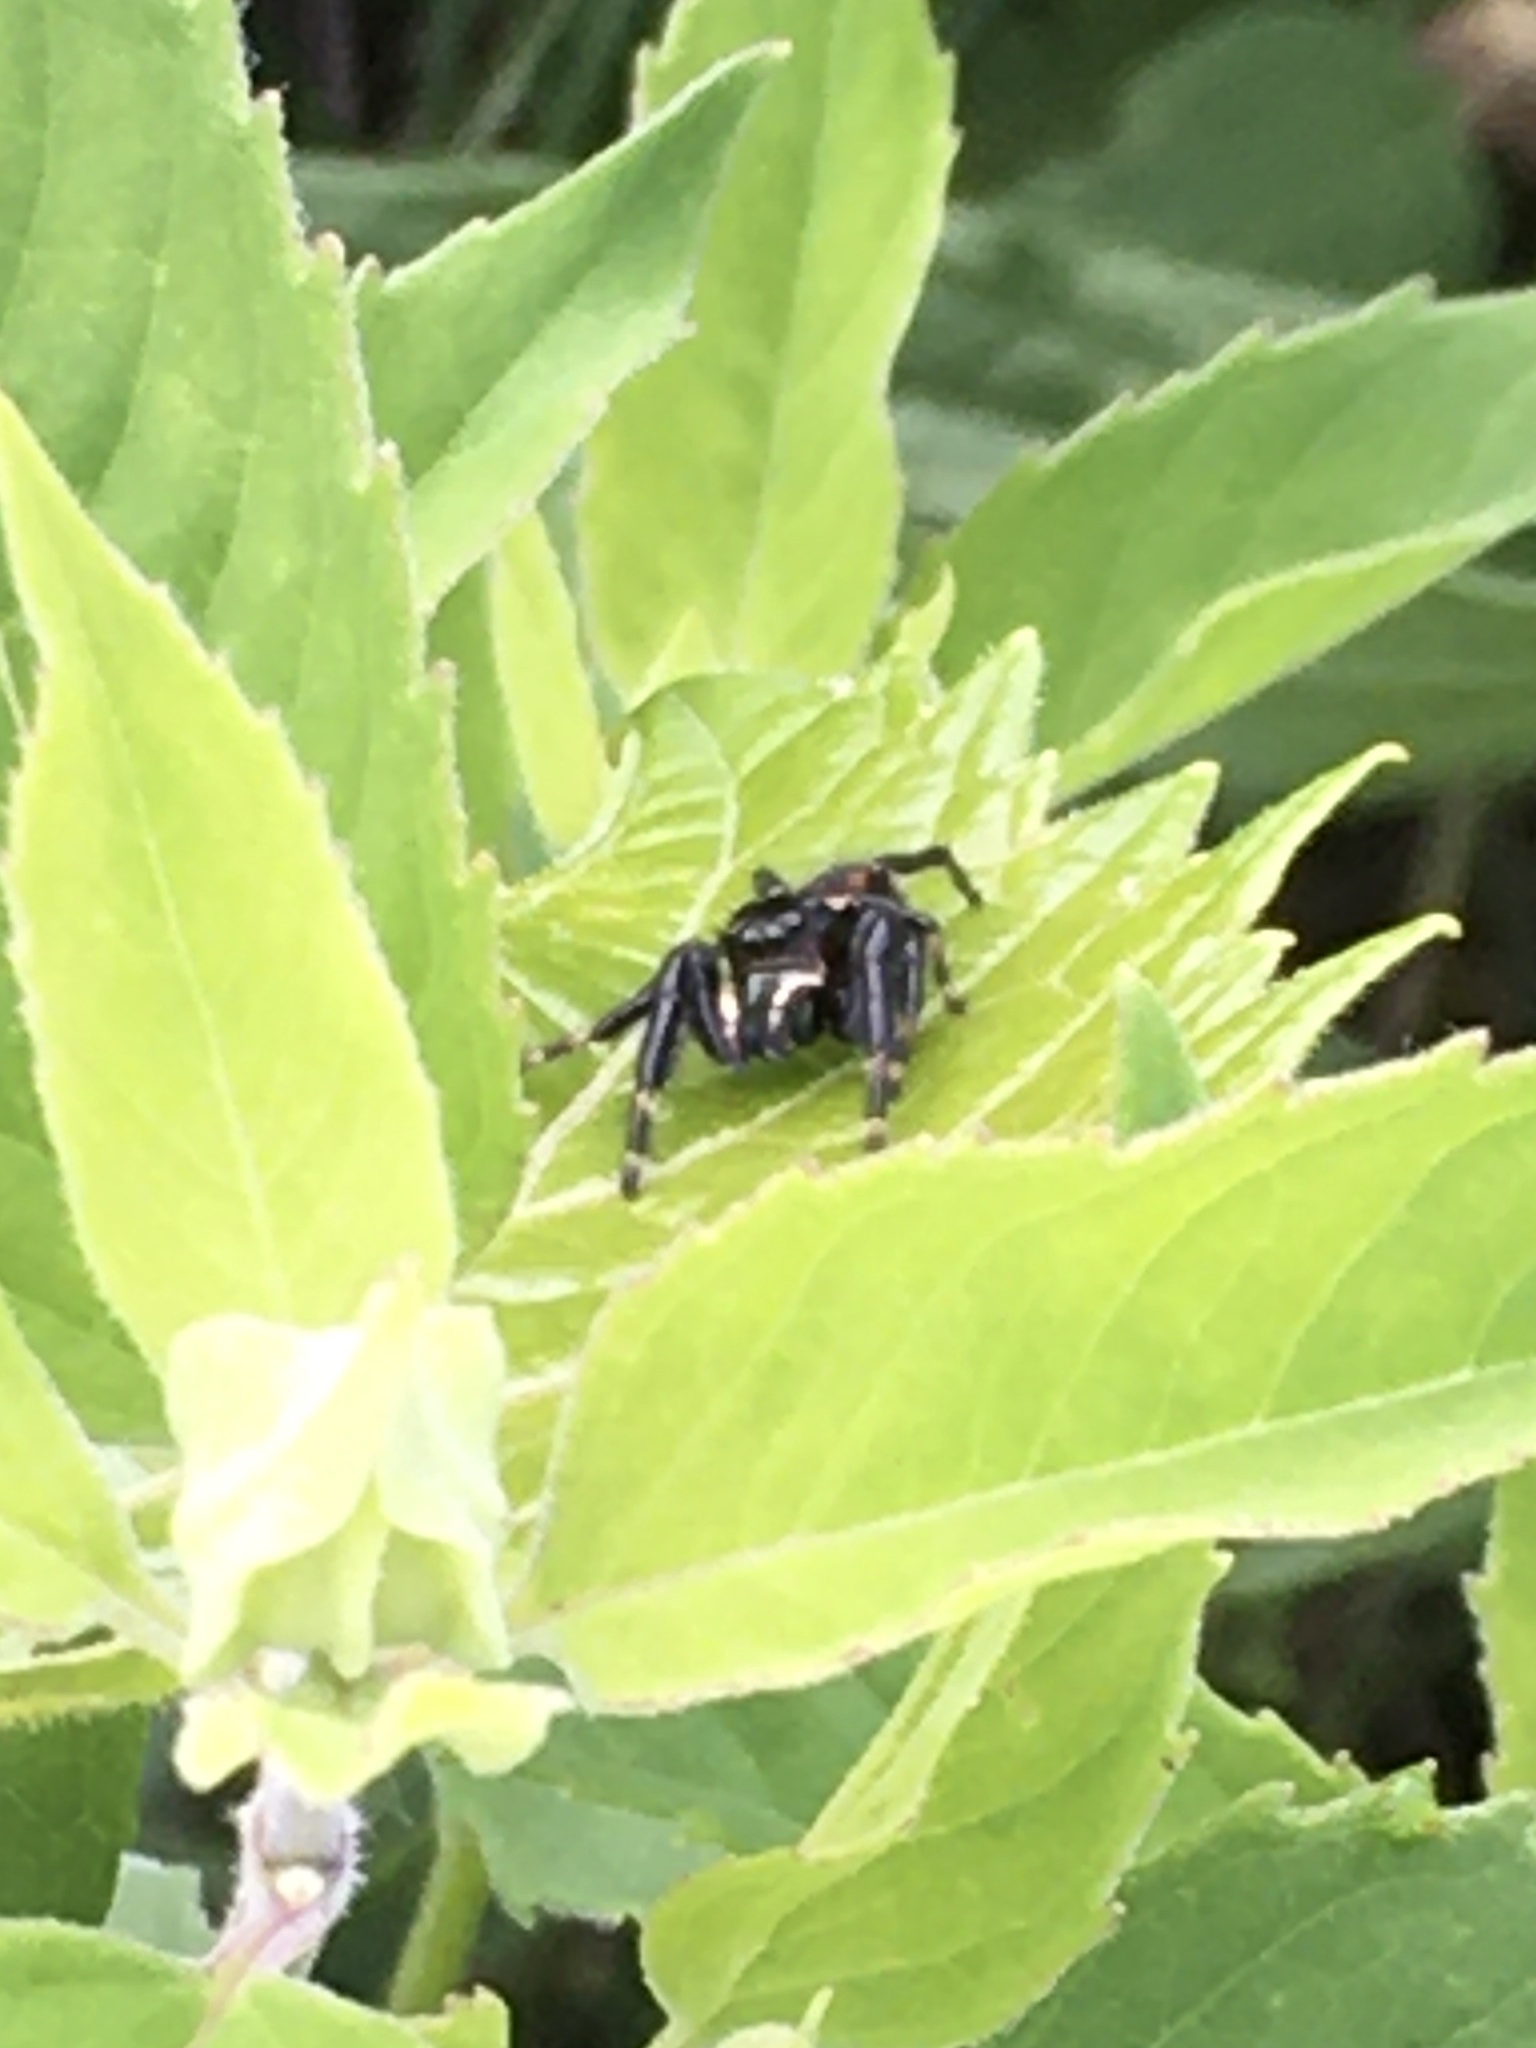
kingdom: Animalia
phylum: Arthropoda
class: Arachnida
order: Araneae
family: Salticidae
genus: Phidippus
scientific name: Phidippus clarus
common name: Brilliant jumping spider
